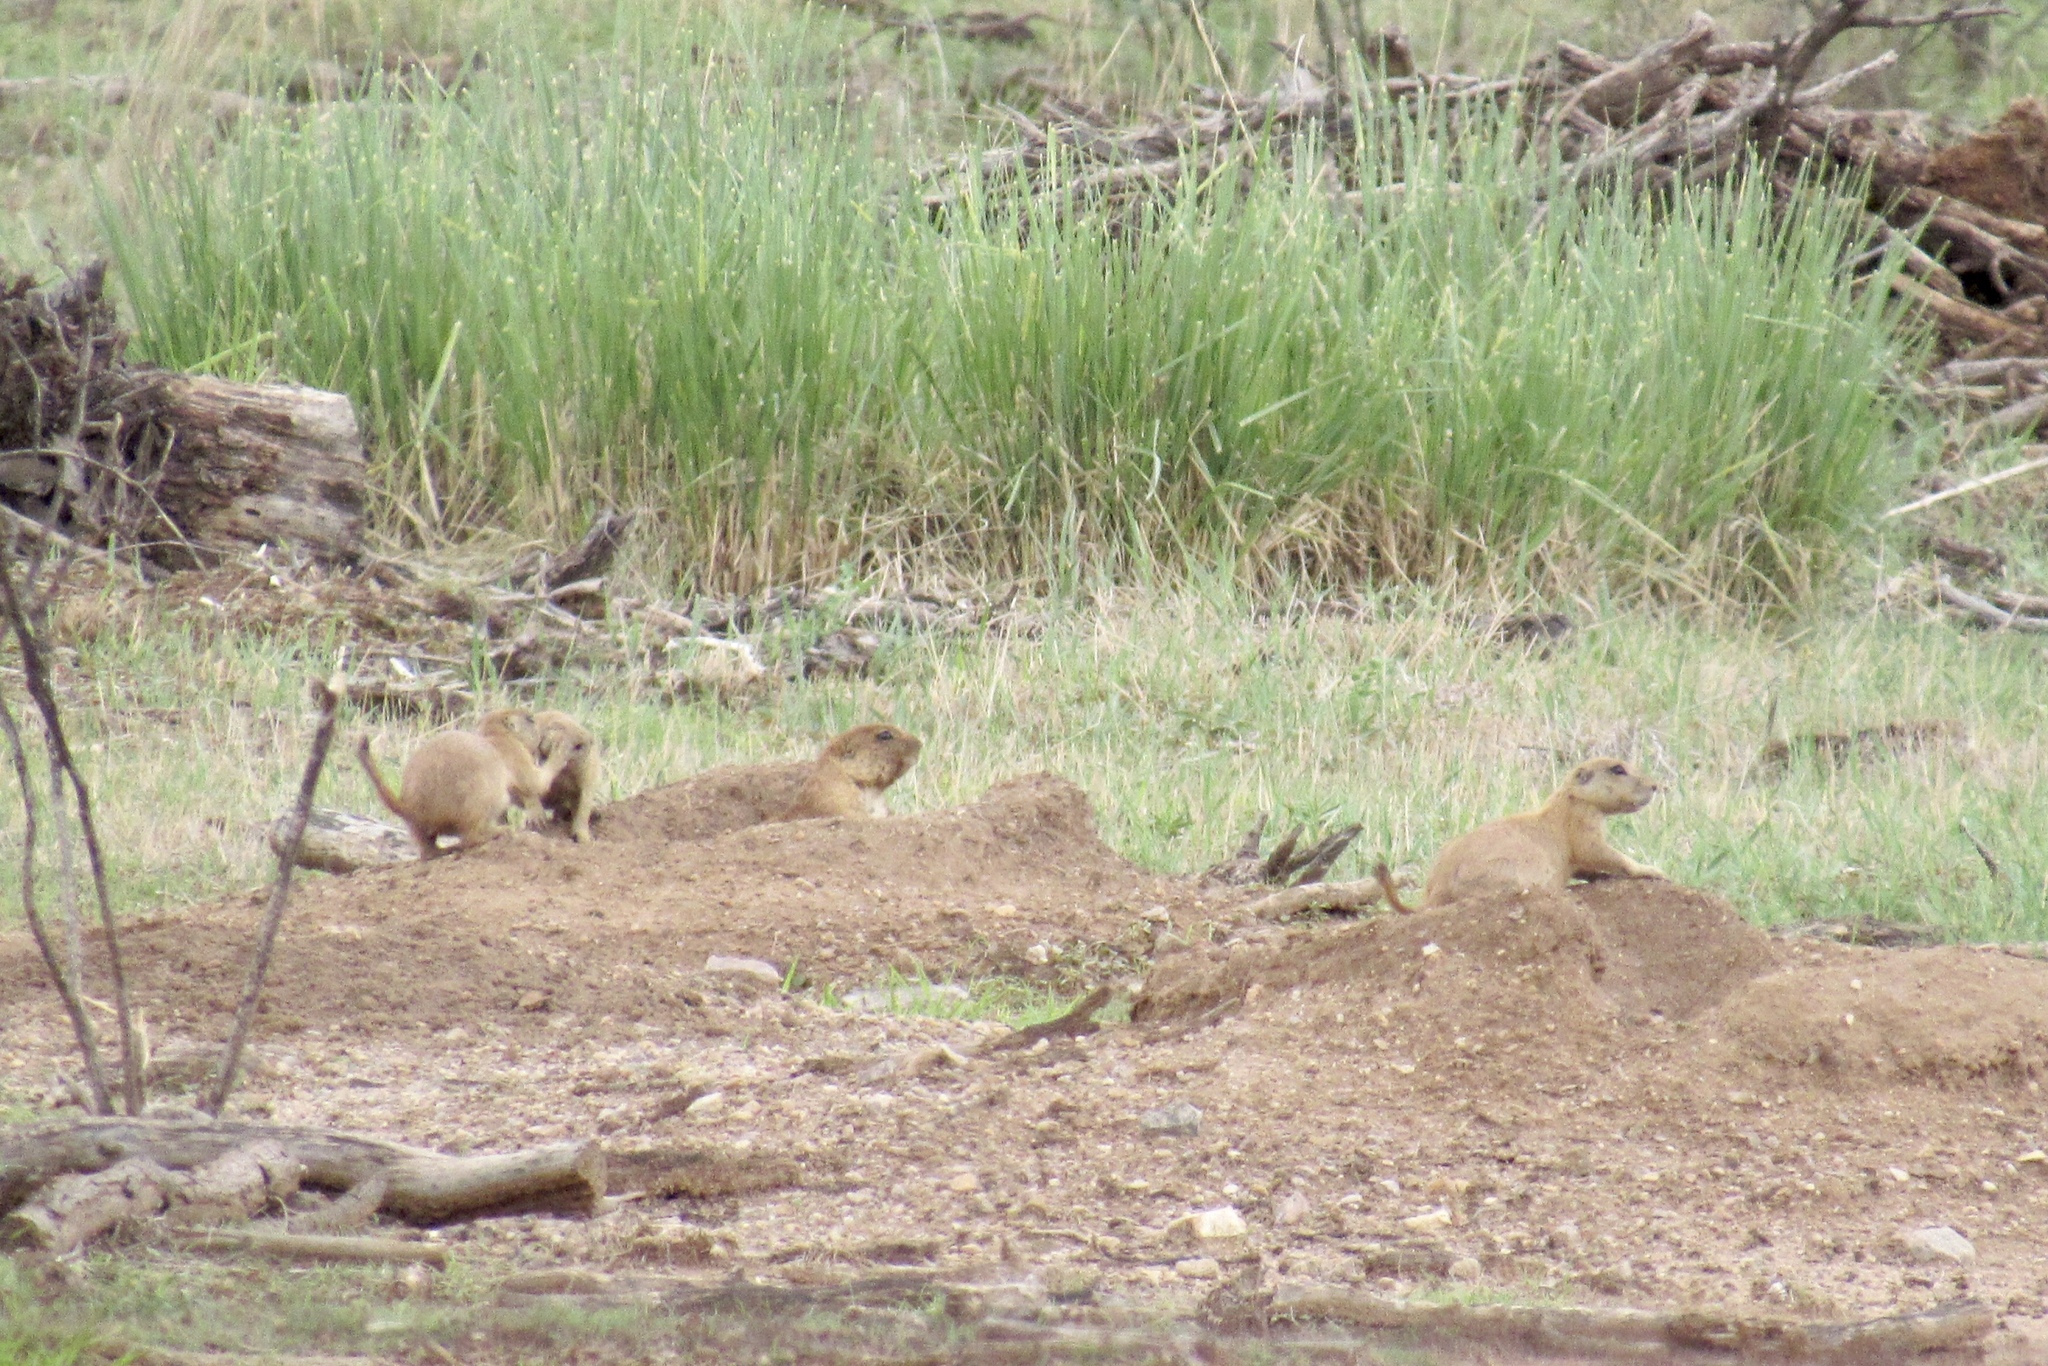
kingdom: Animalia
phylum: Chordata
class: Mammalia
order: Rodentia
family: Sciuridae
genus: Cynomys
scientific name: Cynomys ludovicianus
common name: Black-tailed prairie dog
